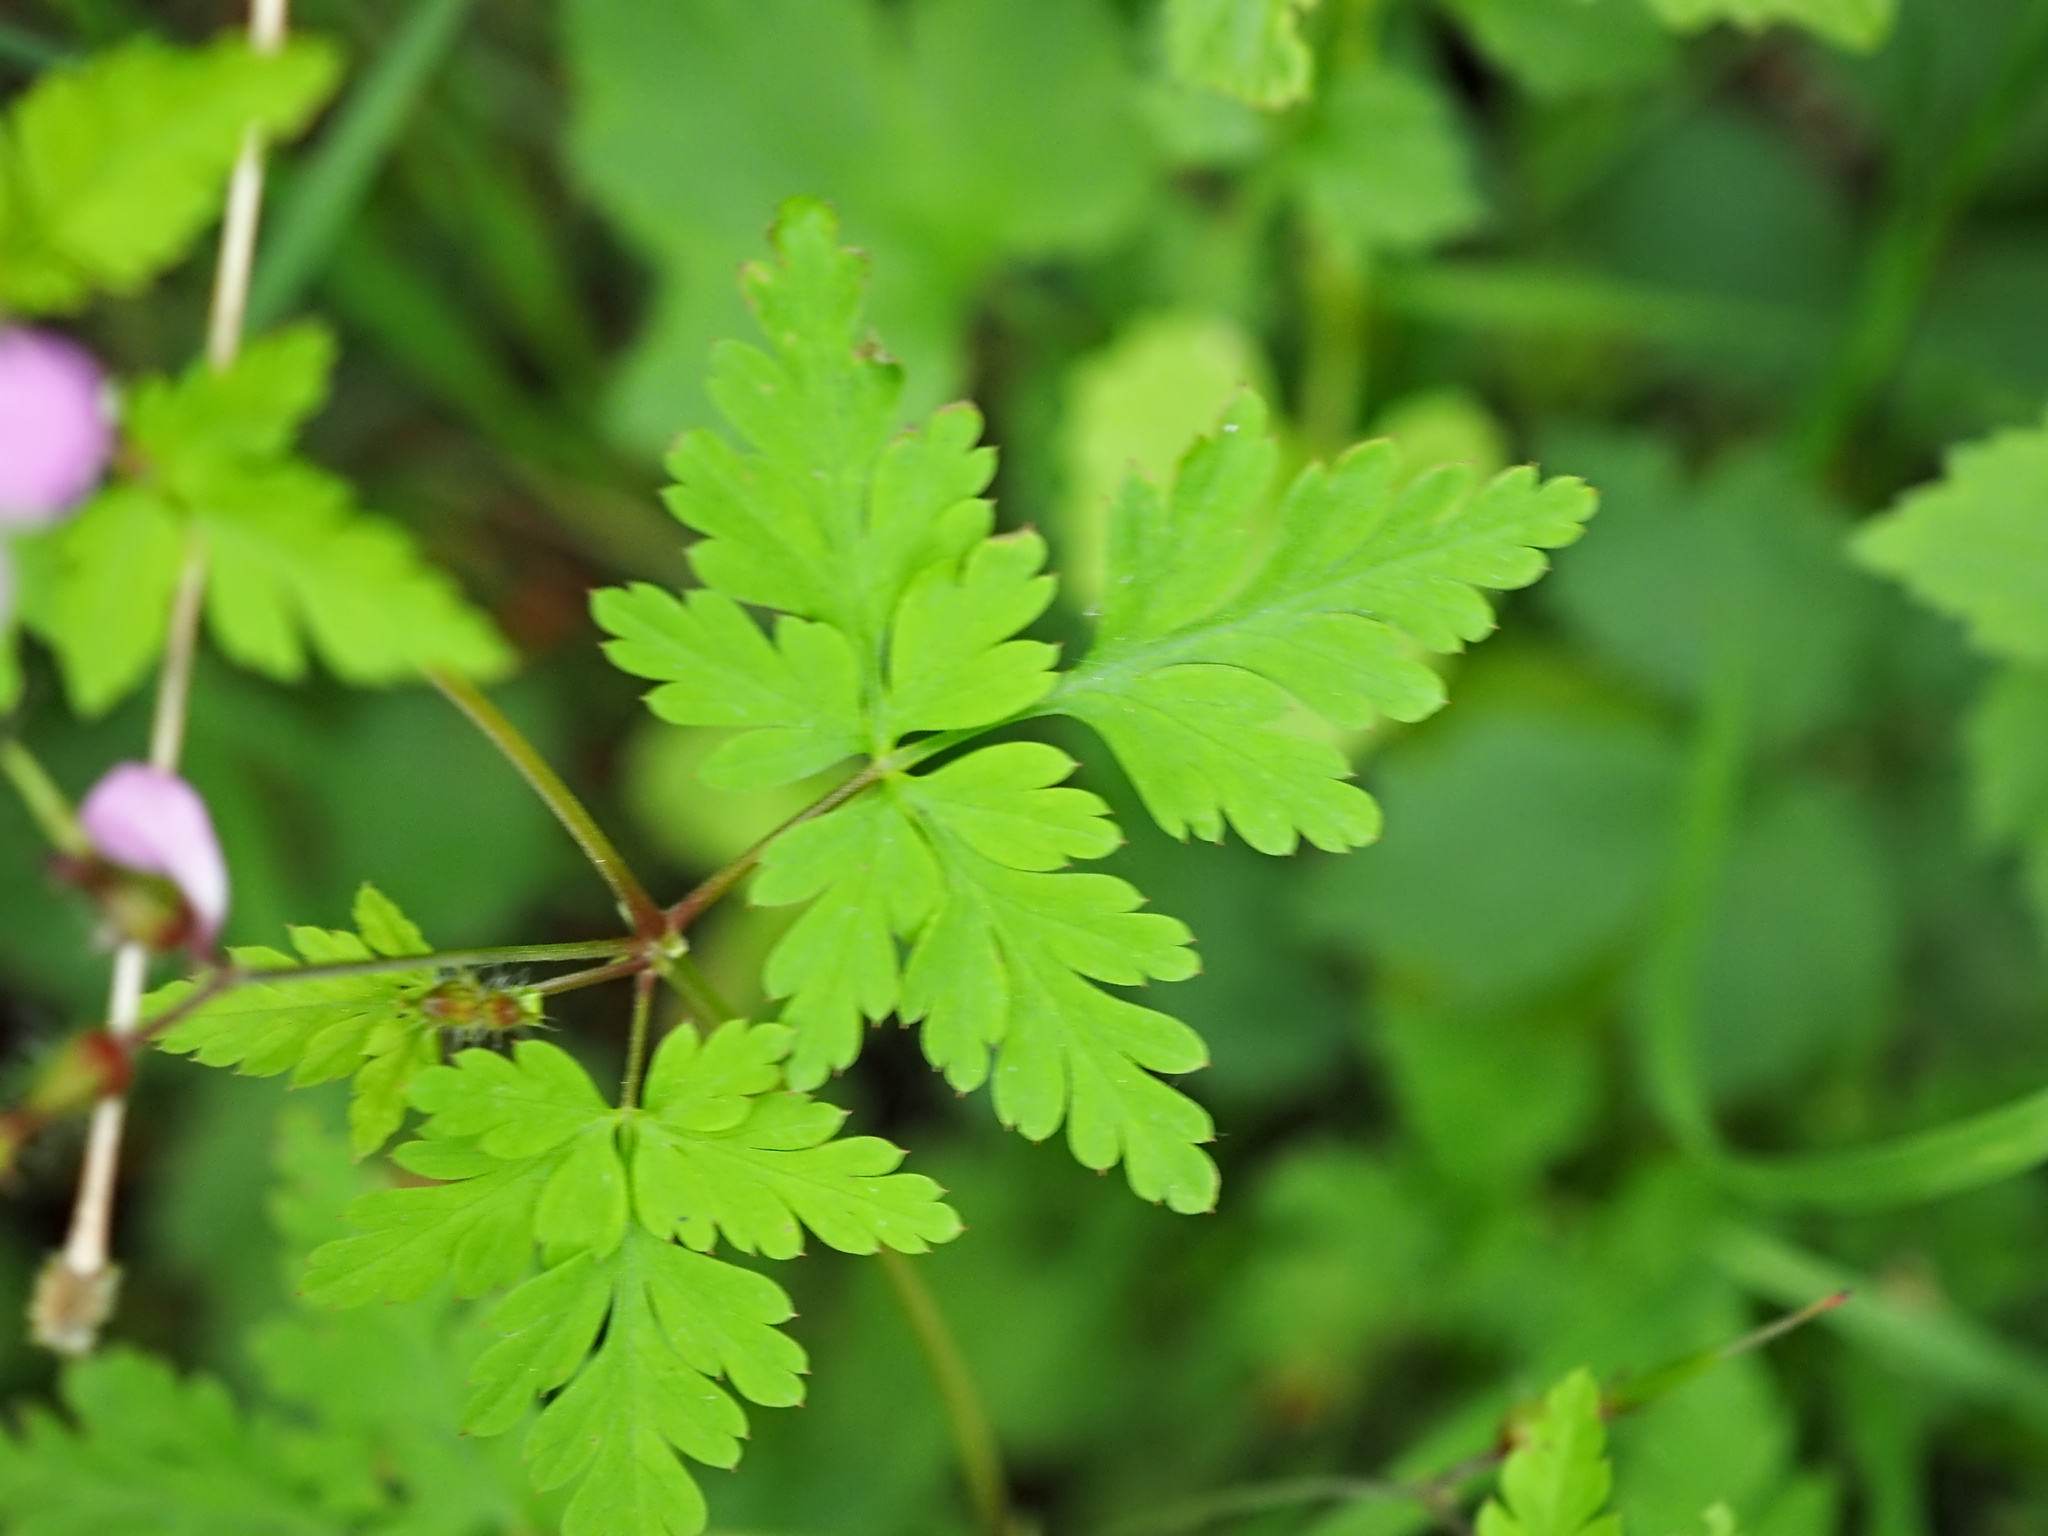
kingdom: Plantae
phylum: Tracheophyta
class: Magnoliopsida
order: Geraniales
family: Geraniaceae
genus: Geranium
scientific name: Geranium robertianum
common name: Herb-robert
